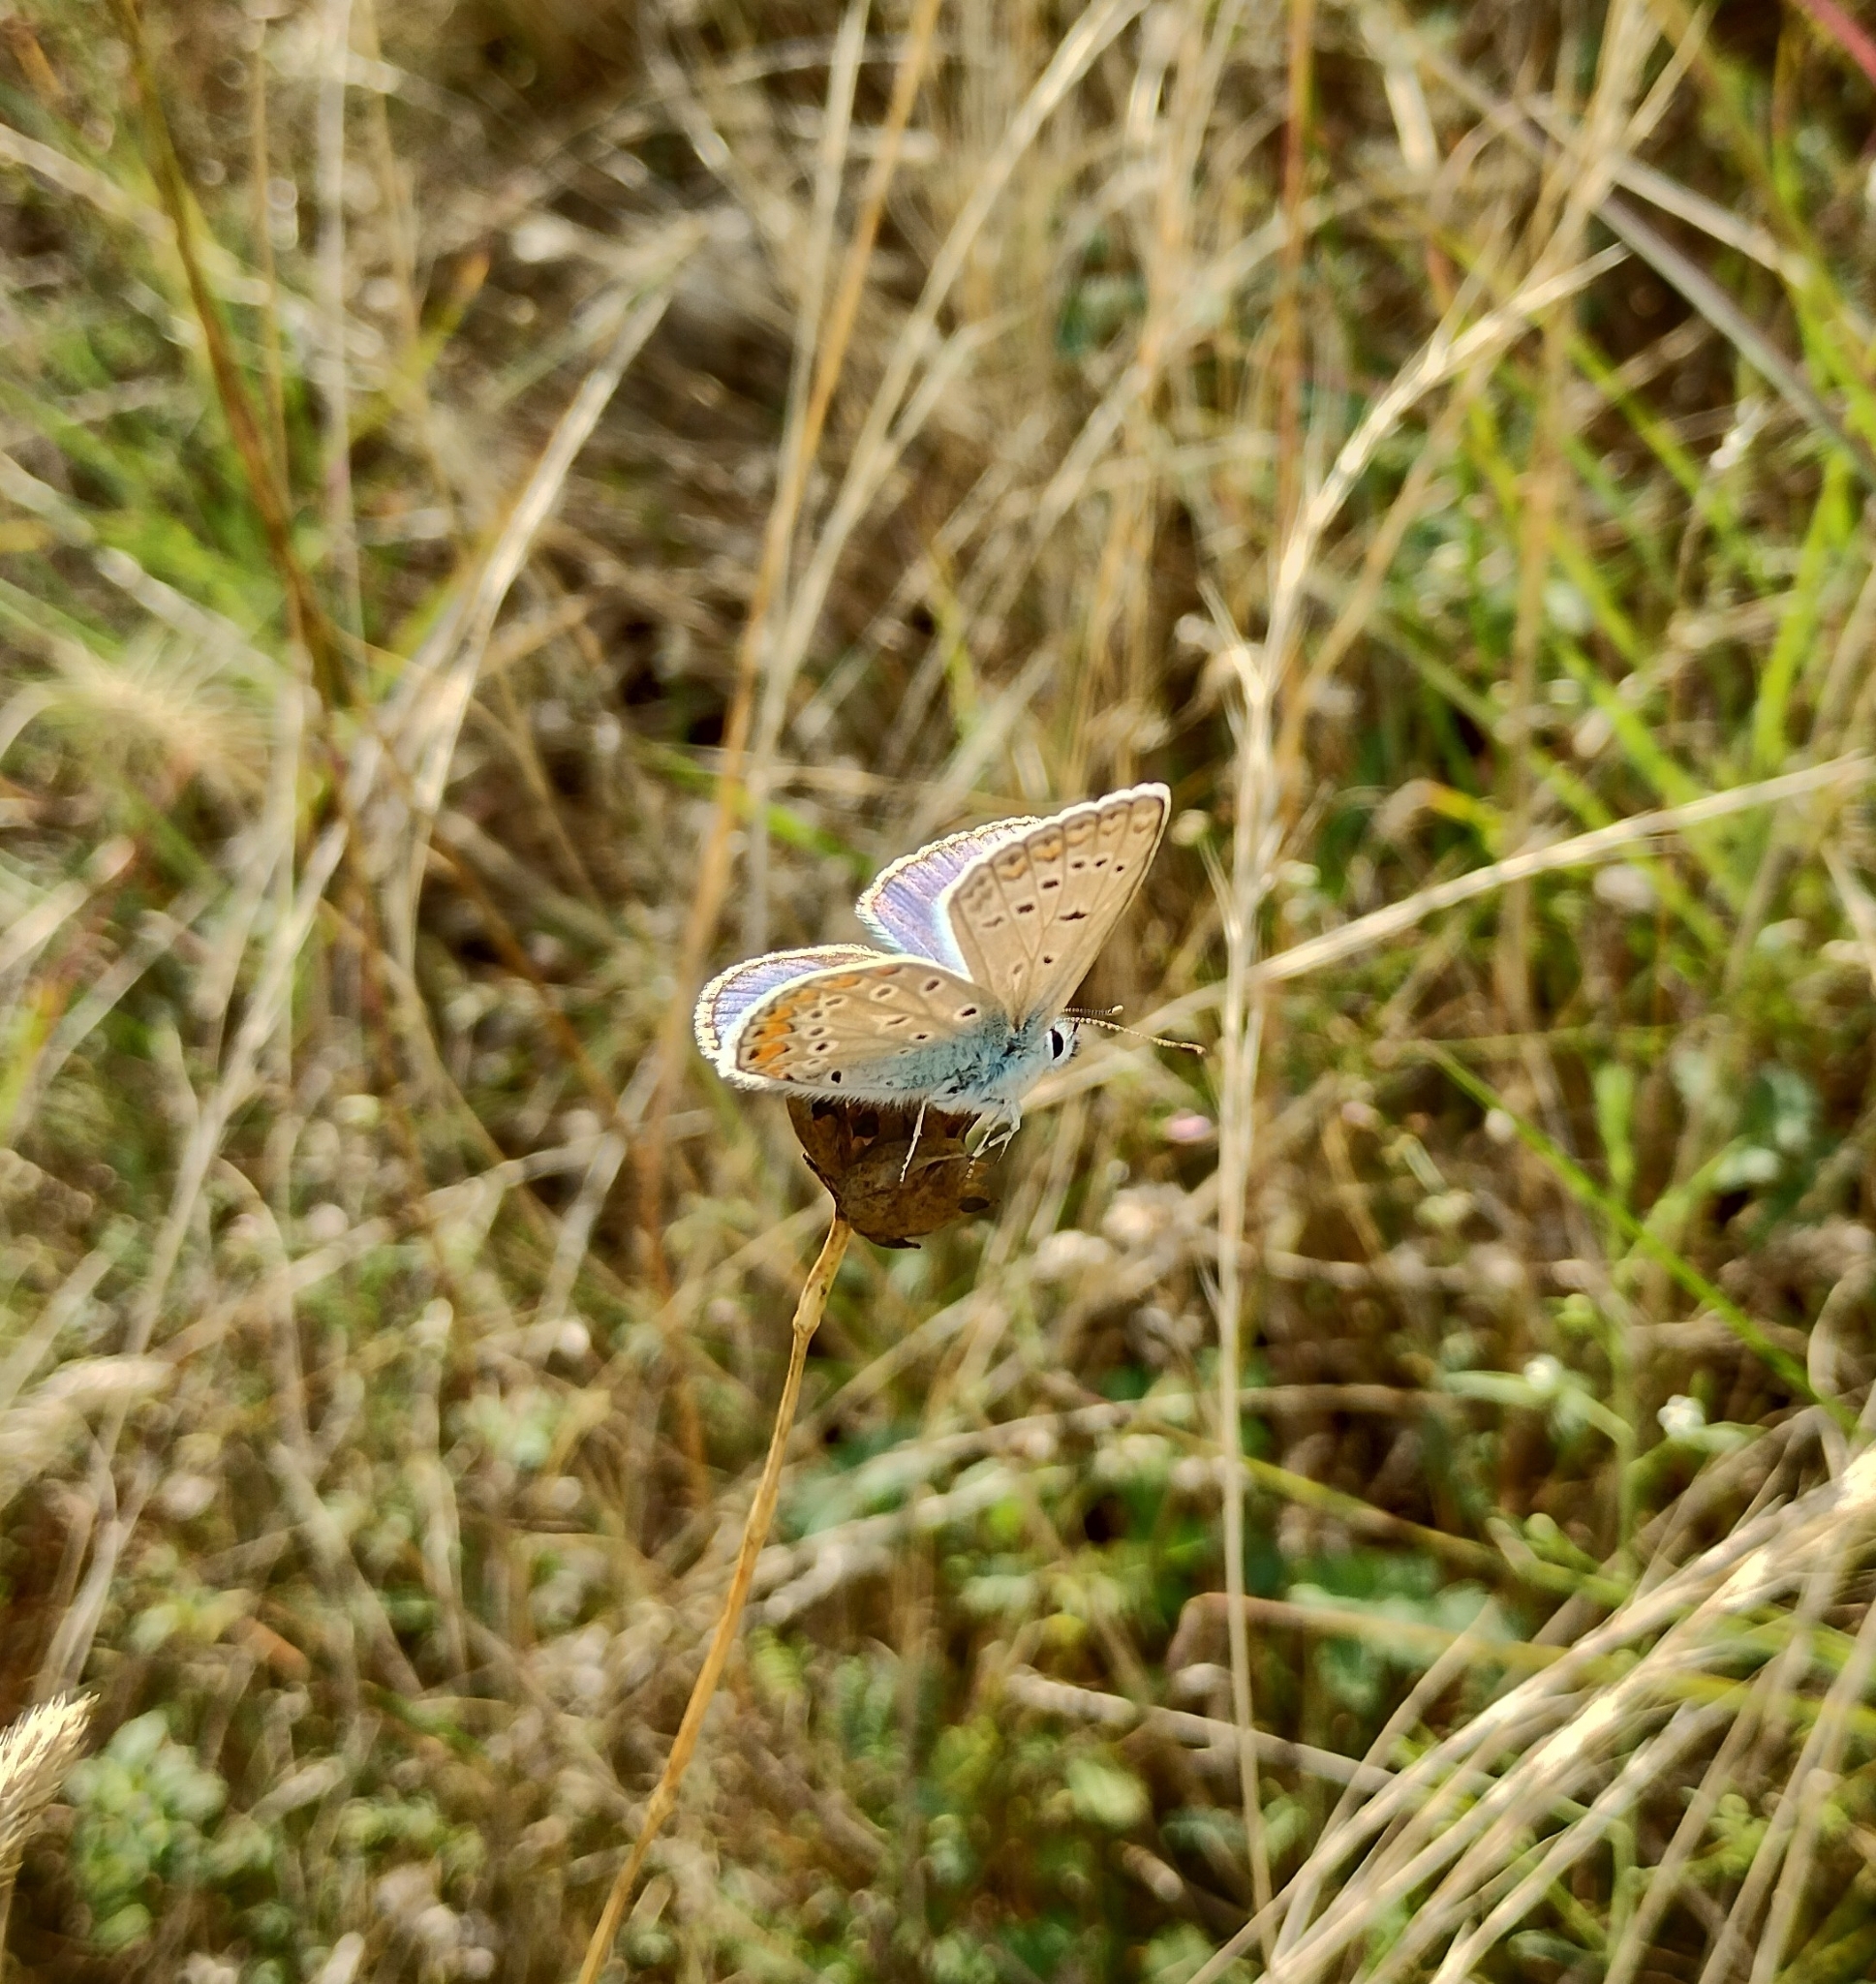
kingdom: Animalia
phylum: Arthropoda
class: Insecta
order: Lepidoptera
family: Lycaenidae
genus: Polyommatus
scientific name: Polyommatus icarus
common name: Common blue
